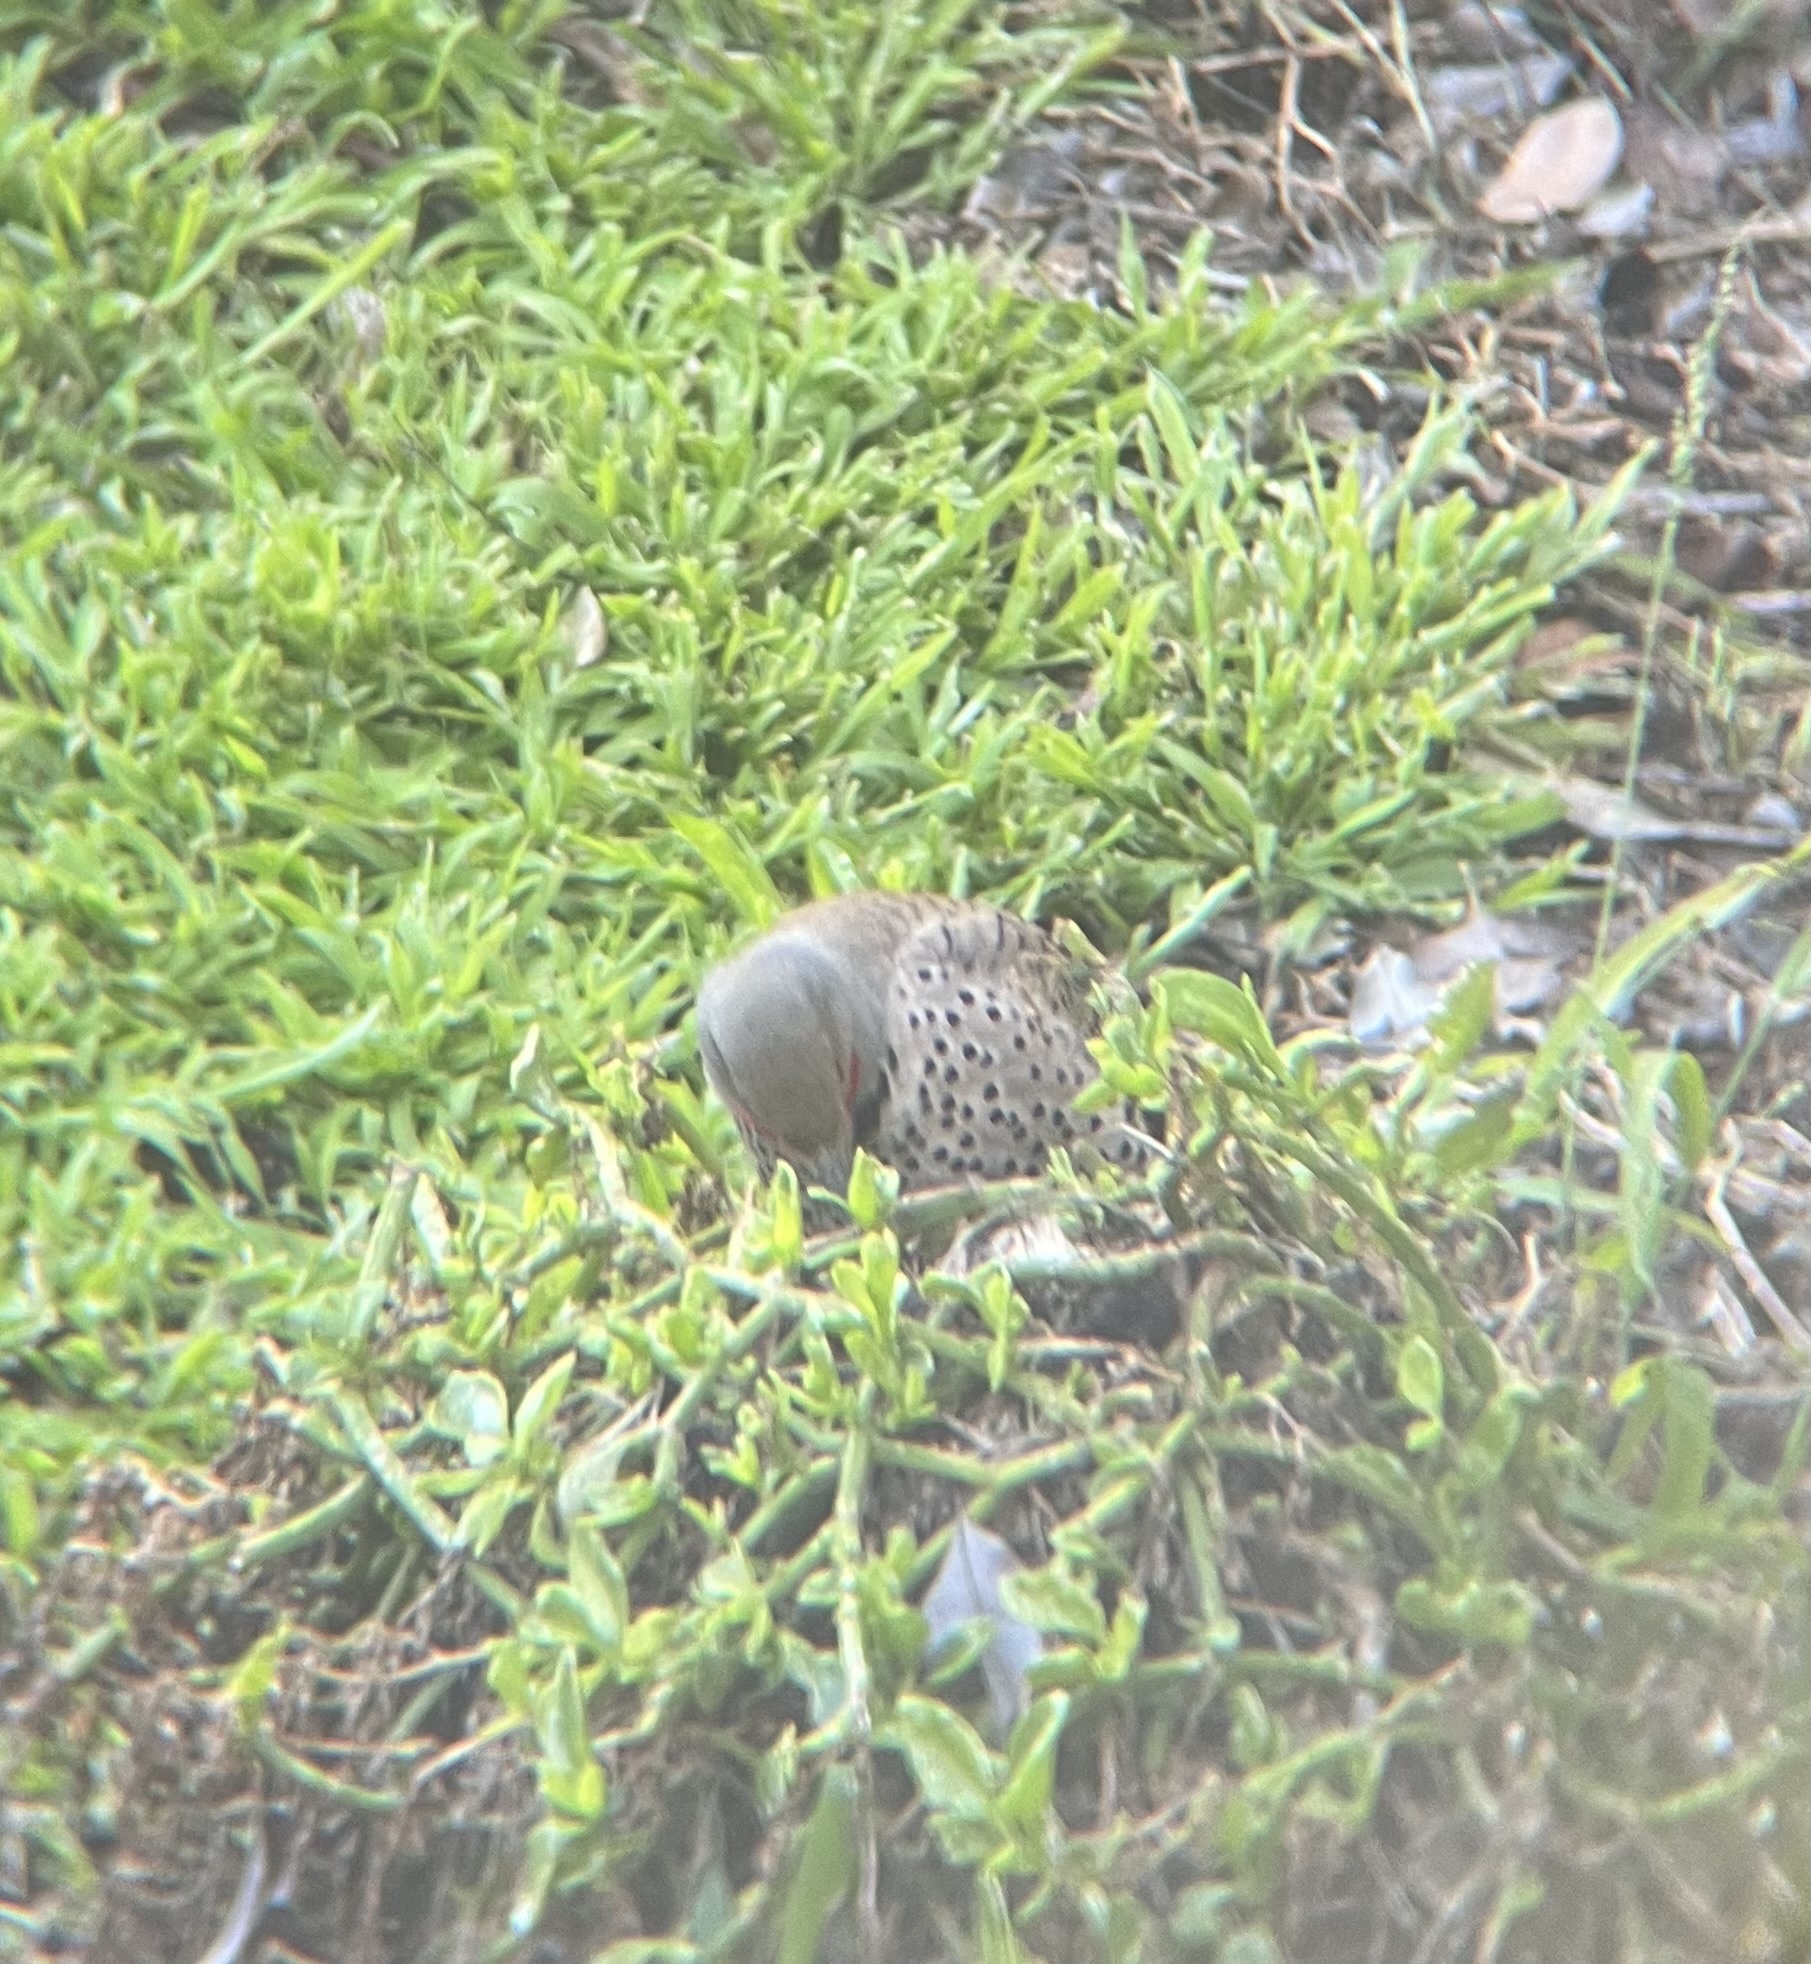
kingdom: Animalia
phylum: Chordata
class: Aves
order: Piciformes
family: Picidae
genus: Colaptes
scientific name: Colaptes auratus
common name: Northern flicker
